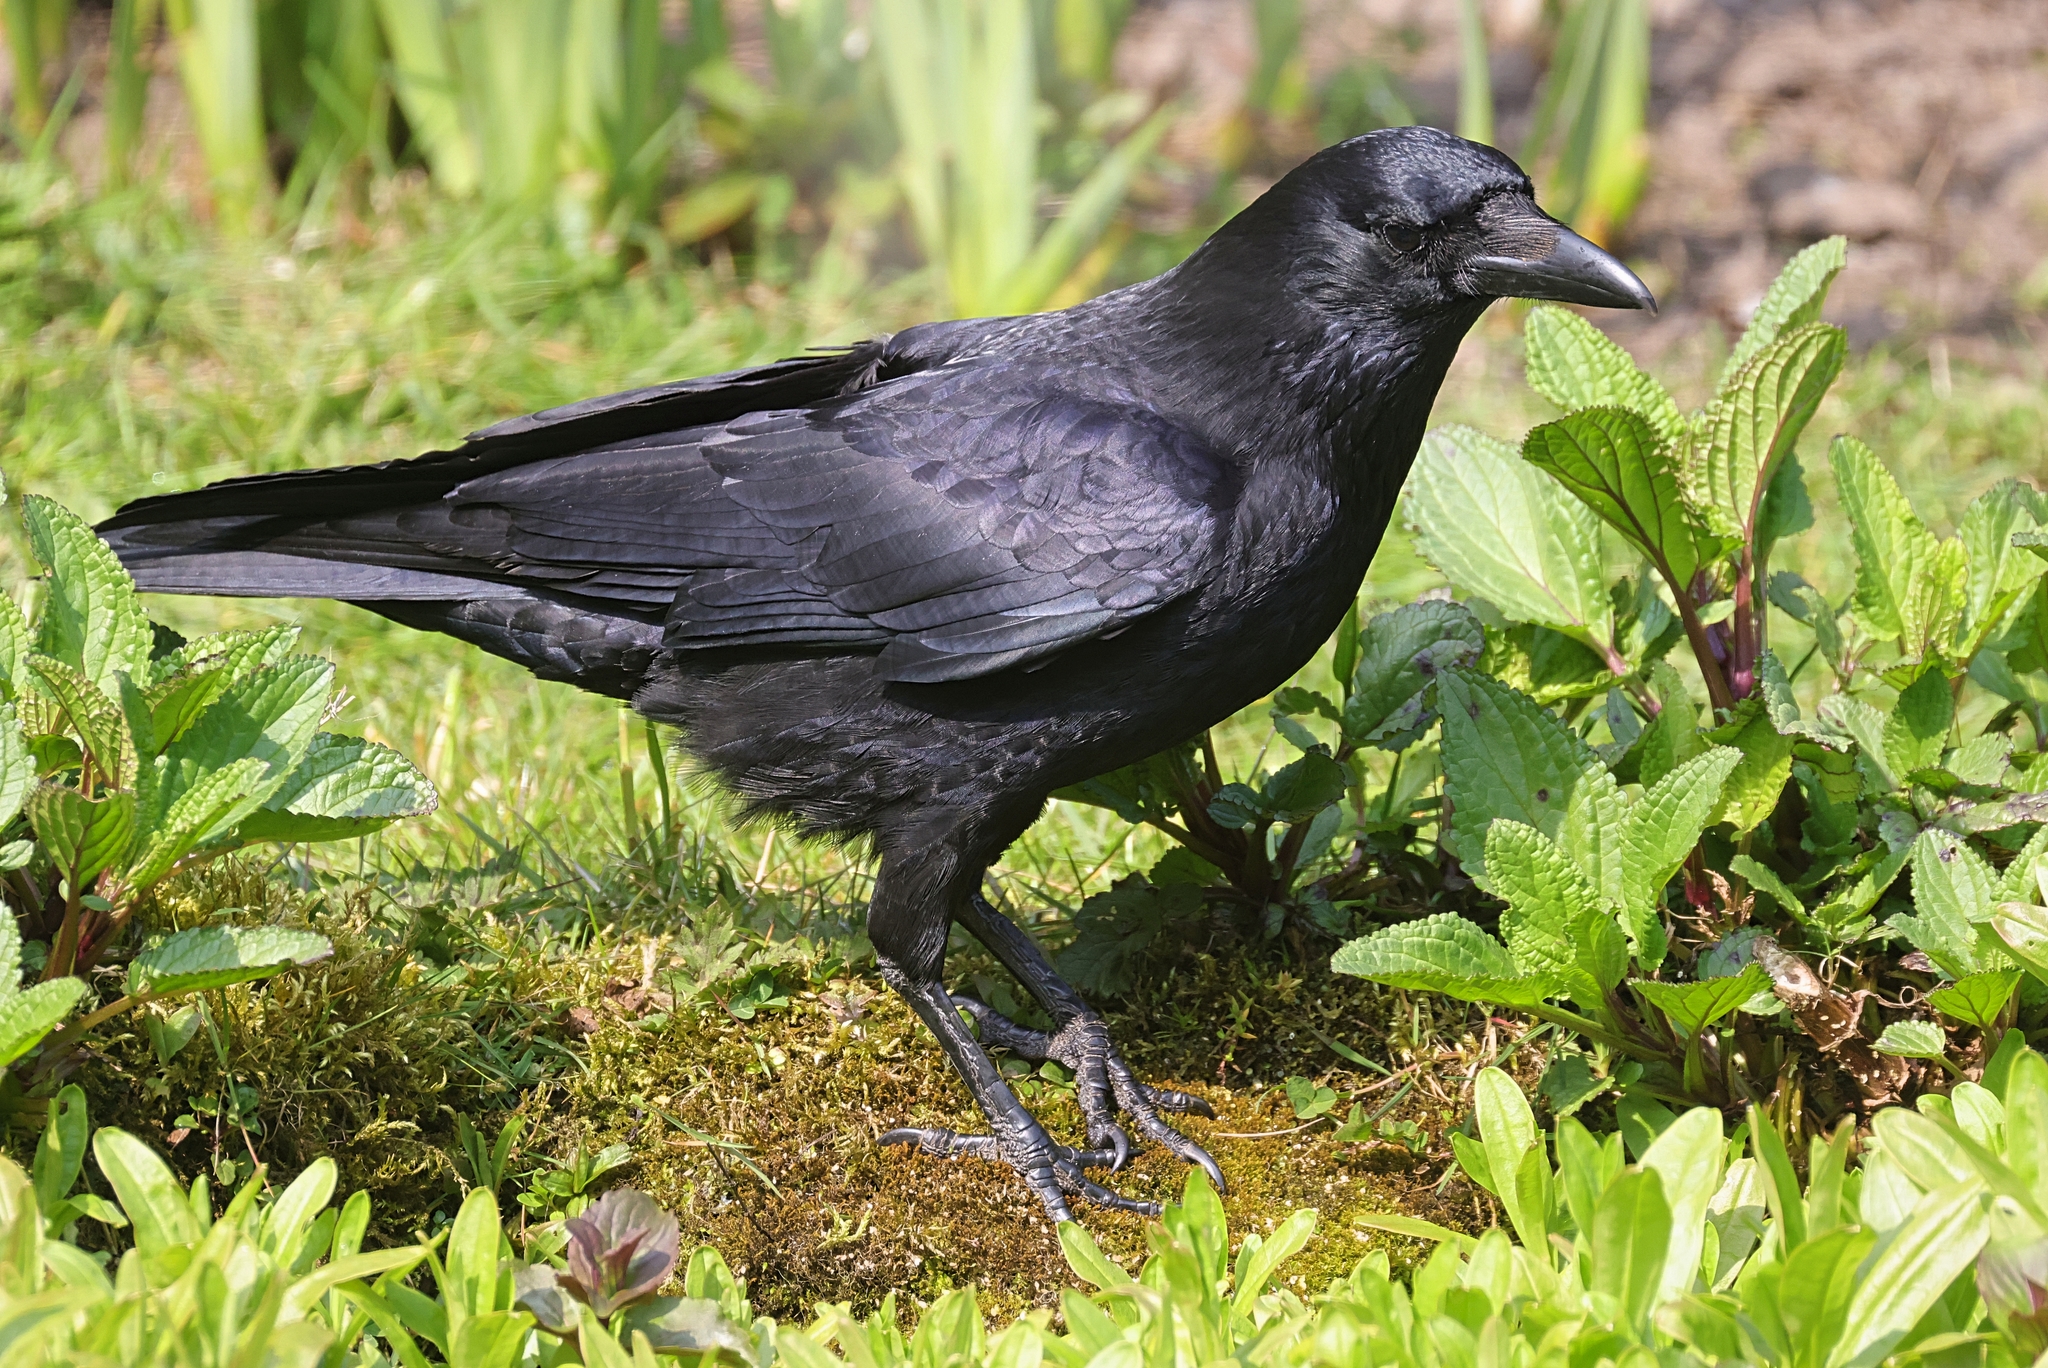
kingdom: Animalia
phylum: Chordata
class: Aves
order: Passeriformes
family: Corvidae
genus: Corvus
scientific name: Corvus corone
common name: Carrion crow
